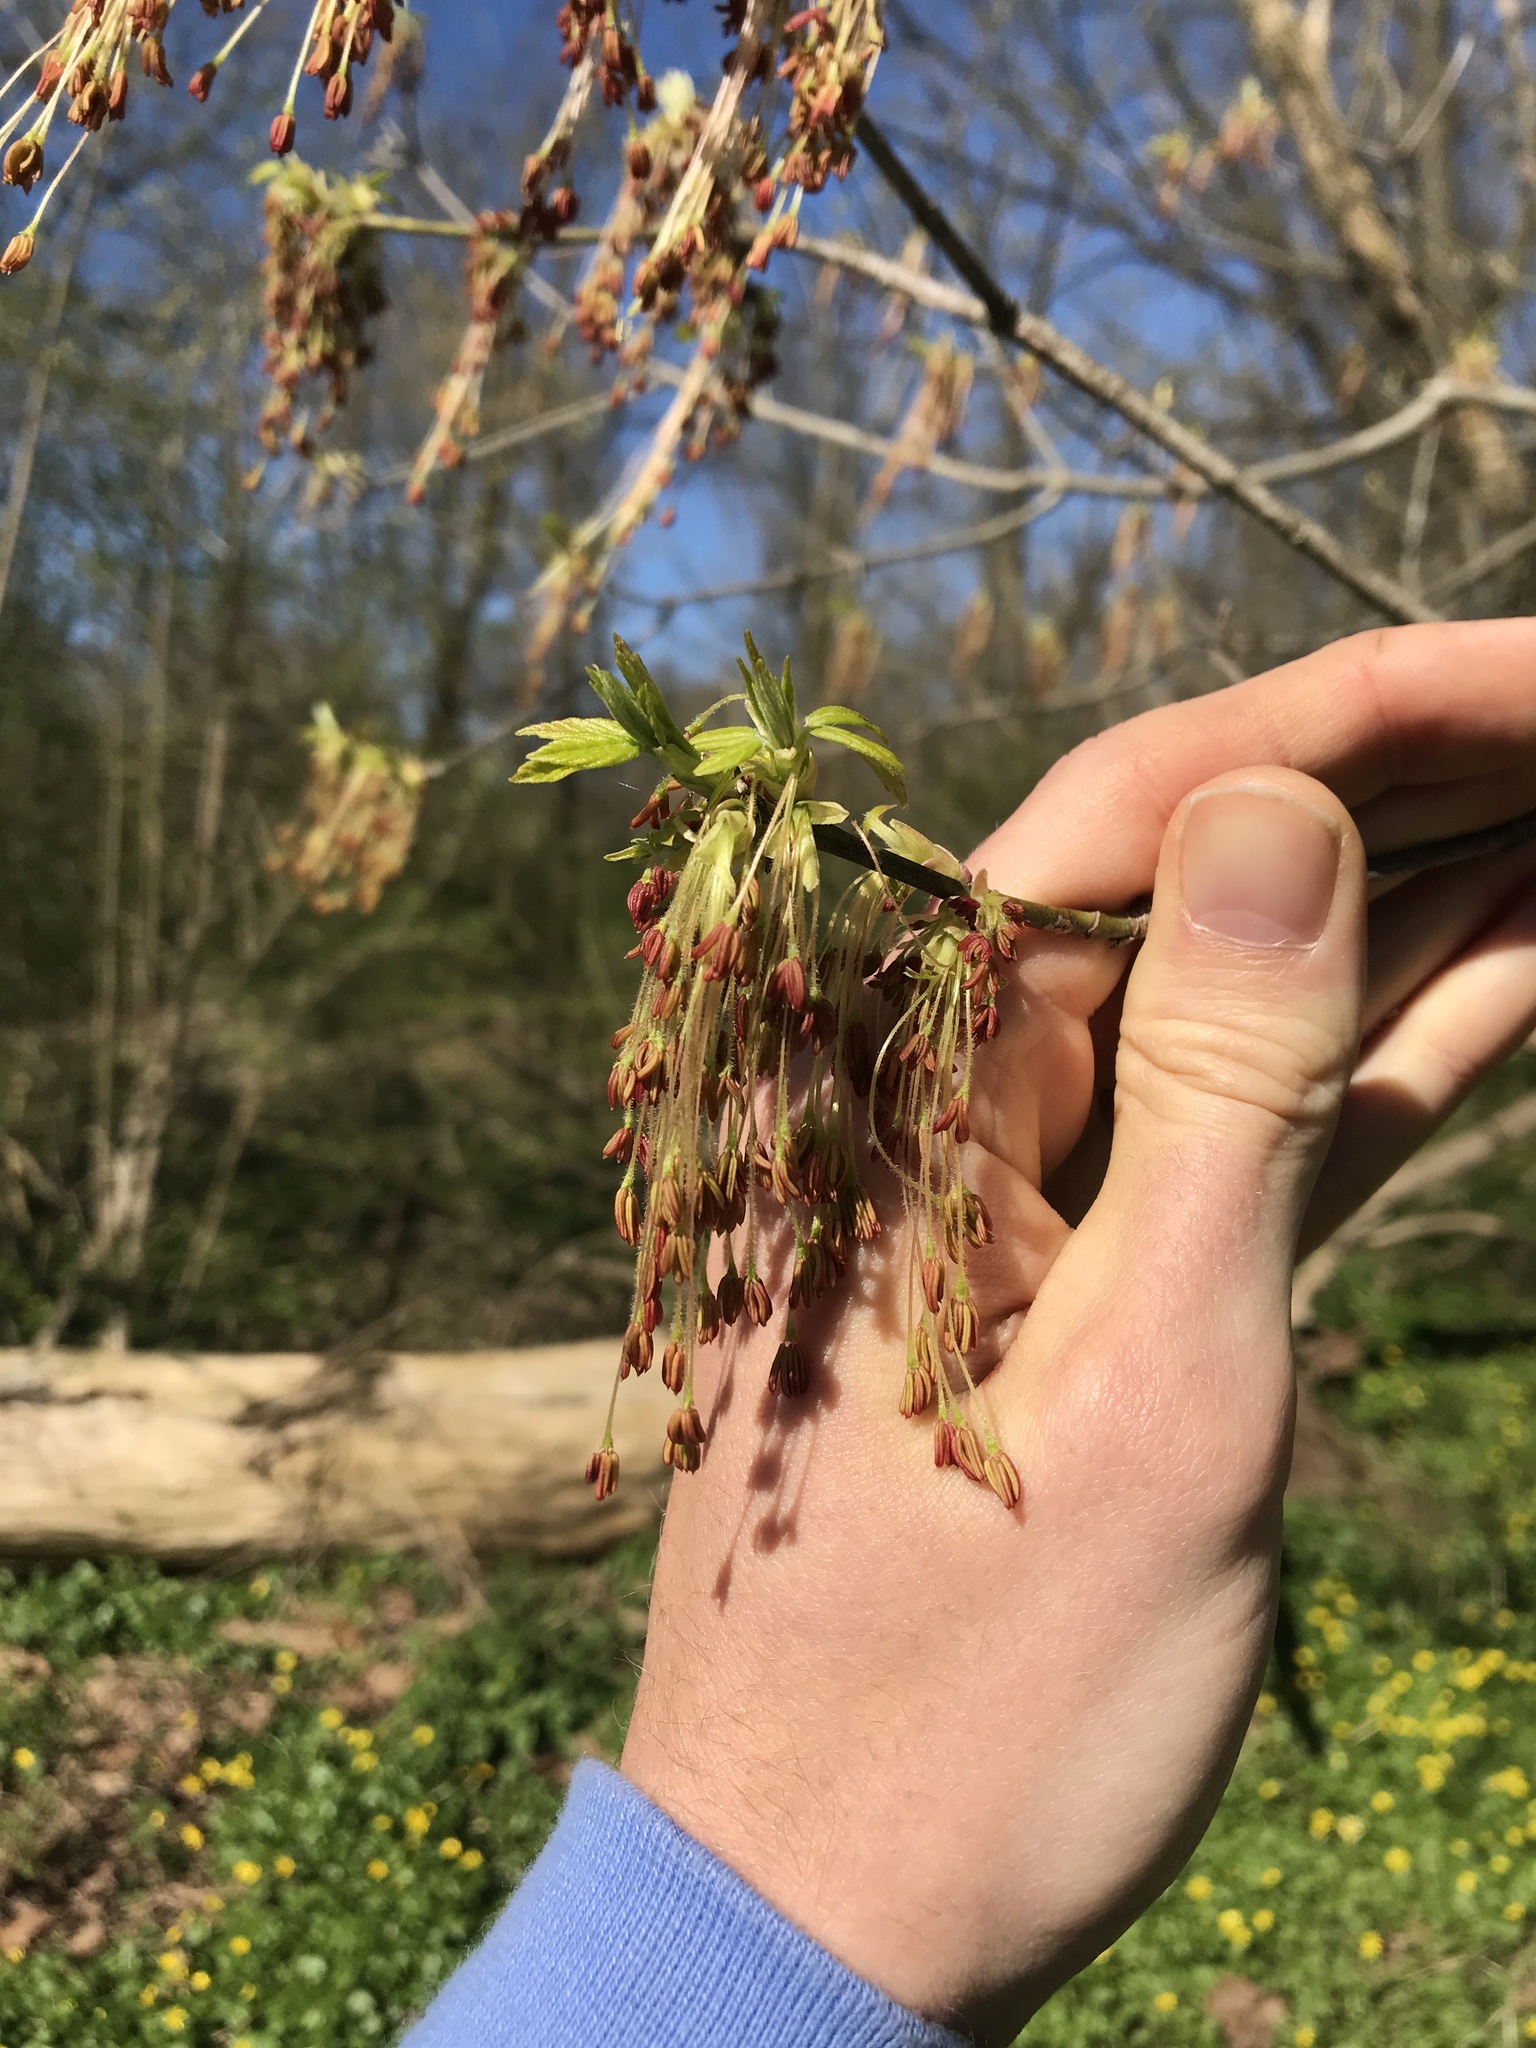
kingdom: Plantae
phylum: Tracheophyta
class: Magnoliopsida
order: Sapindales
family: Sapindaceae
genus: Acer
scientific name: Acer negundo
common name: Ashleaf maple
